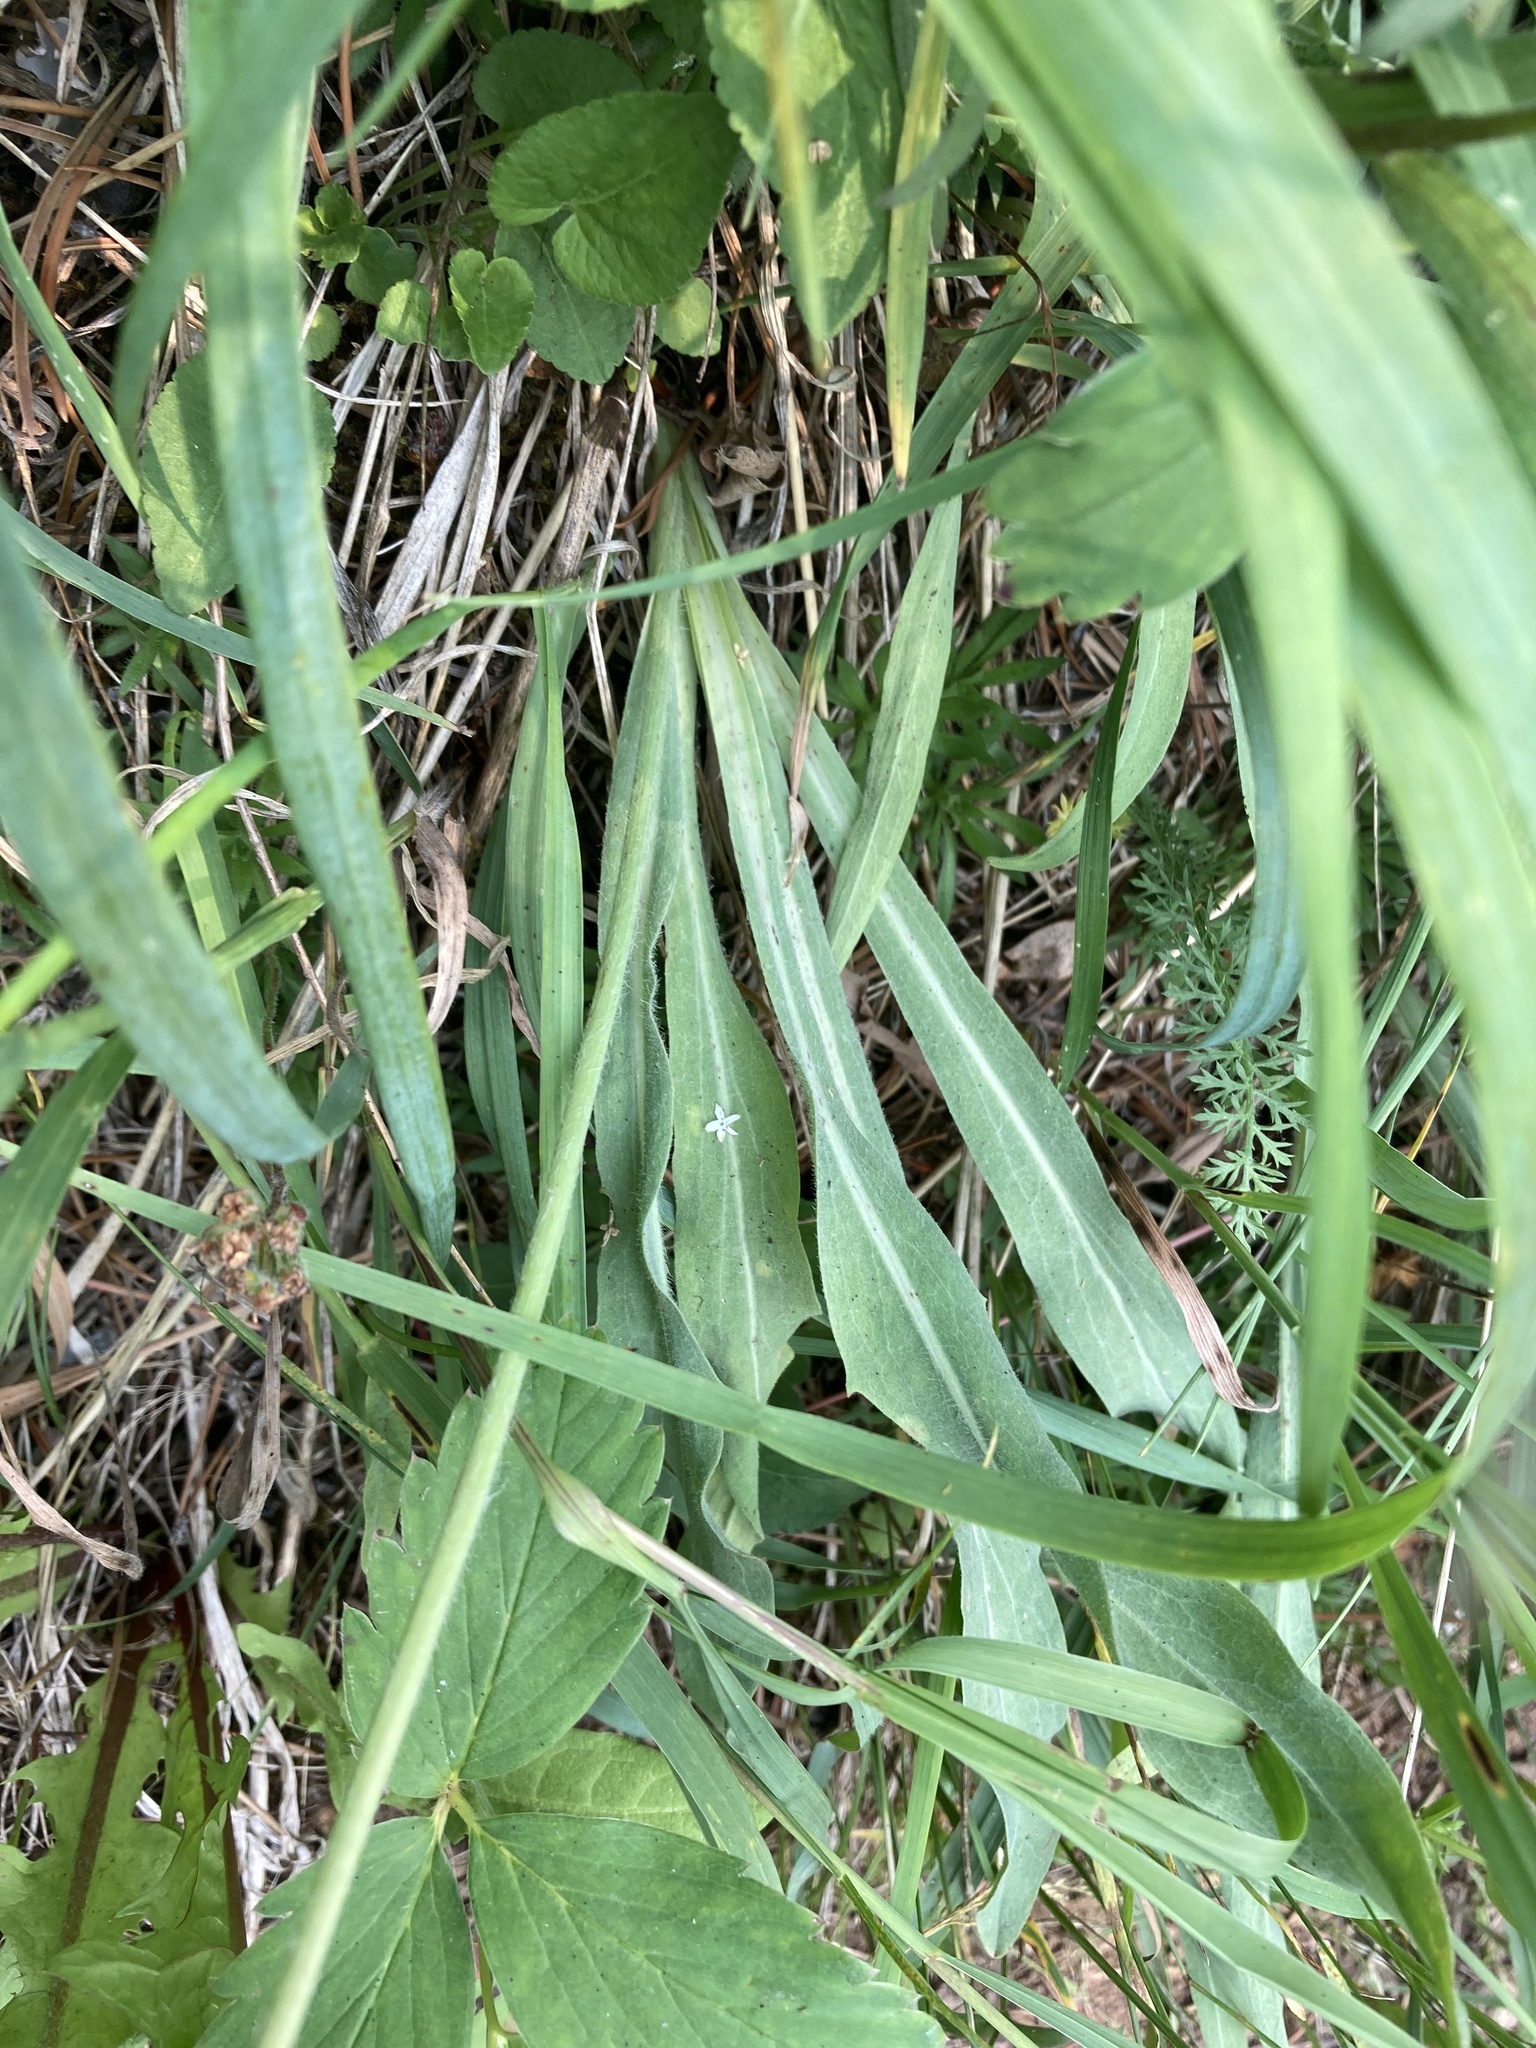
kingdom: Plantae
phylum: Tracheophyta
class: Magnoliopsida
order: Asterales
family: Asteraceae
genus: Agoseris
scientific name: Agoseris glauca
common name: Prairie agoseris
